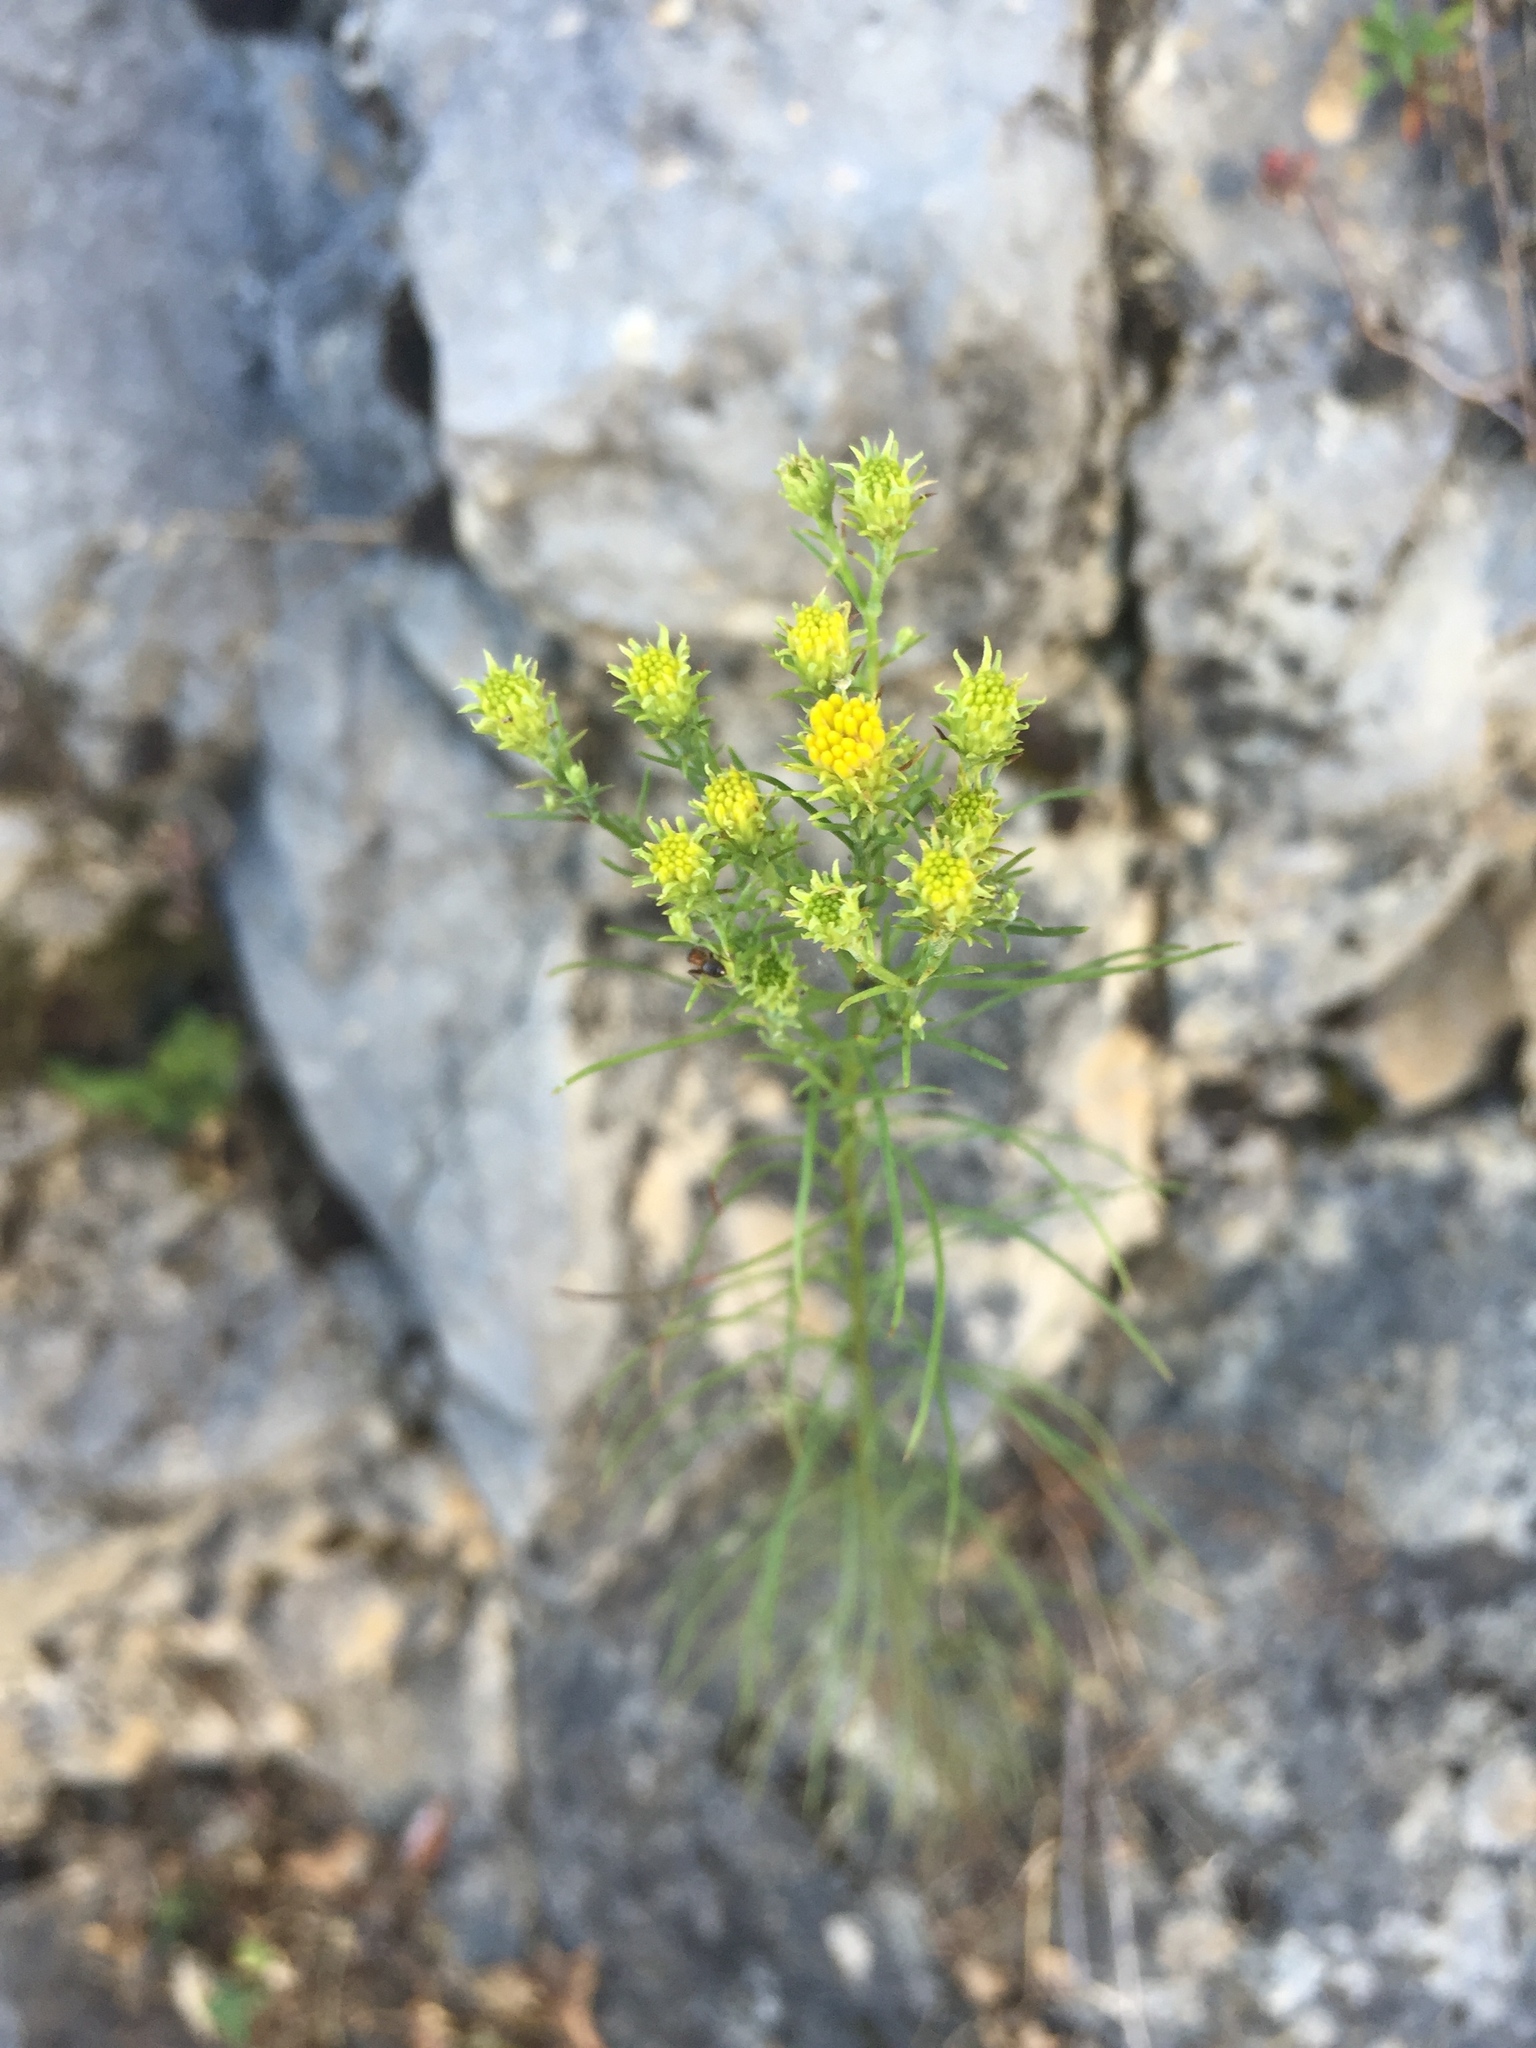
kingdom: Plantae
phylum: Tracheophyta
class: Magnoliopsida
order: Asterales
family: Asteraceae
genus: Galatella
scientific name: Galatella linosyris
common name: Goldilocks aster
